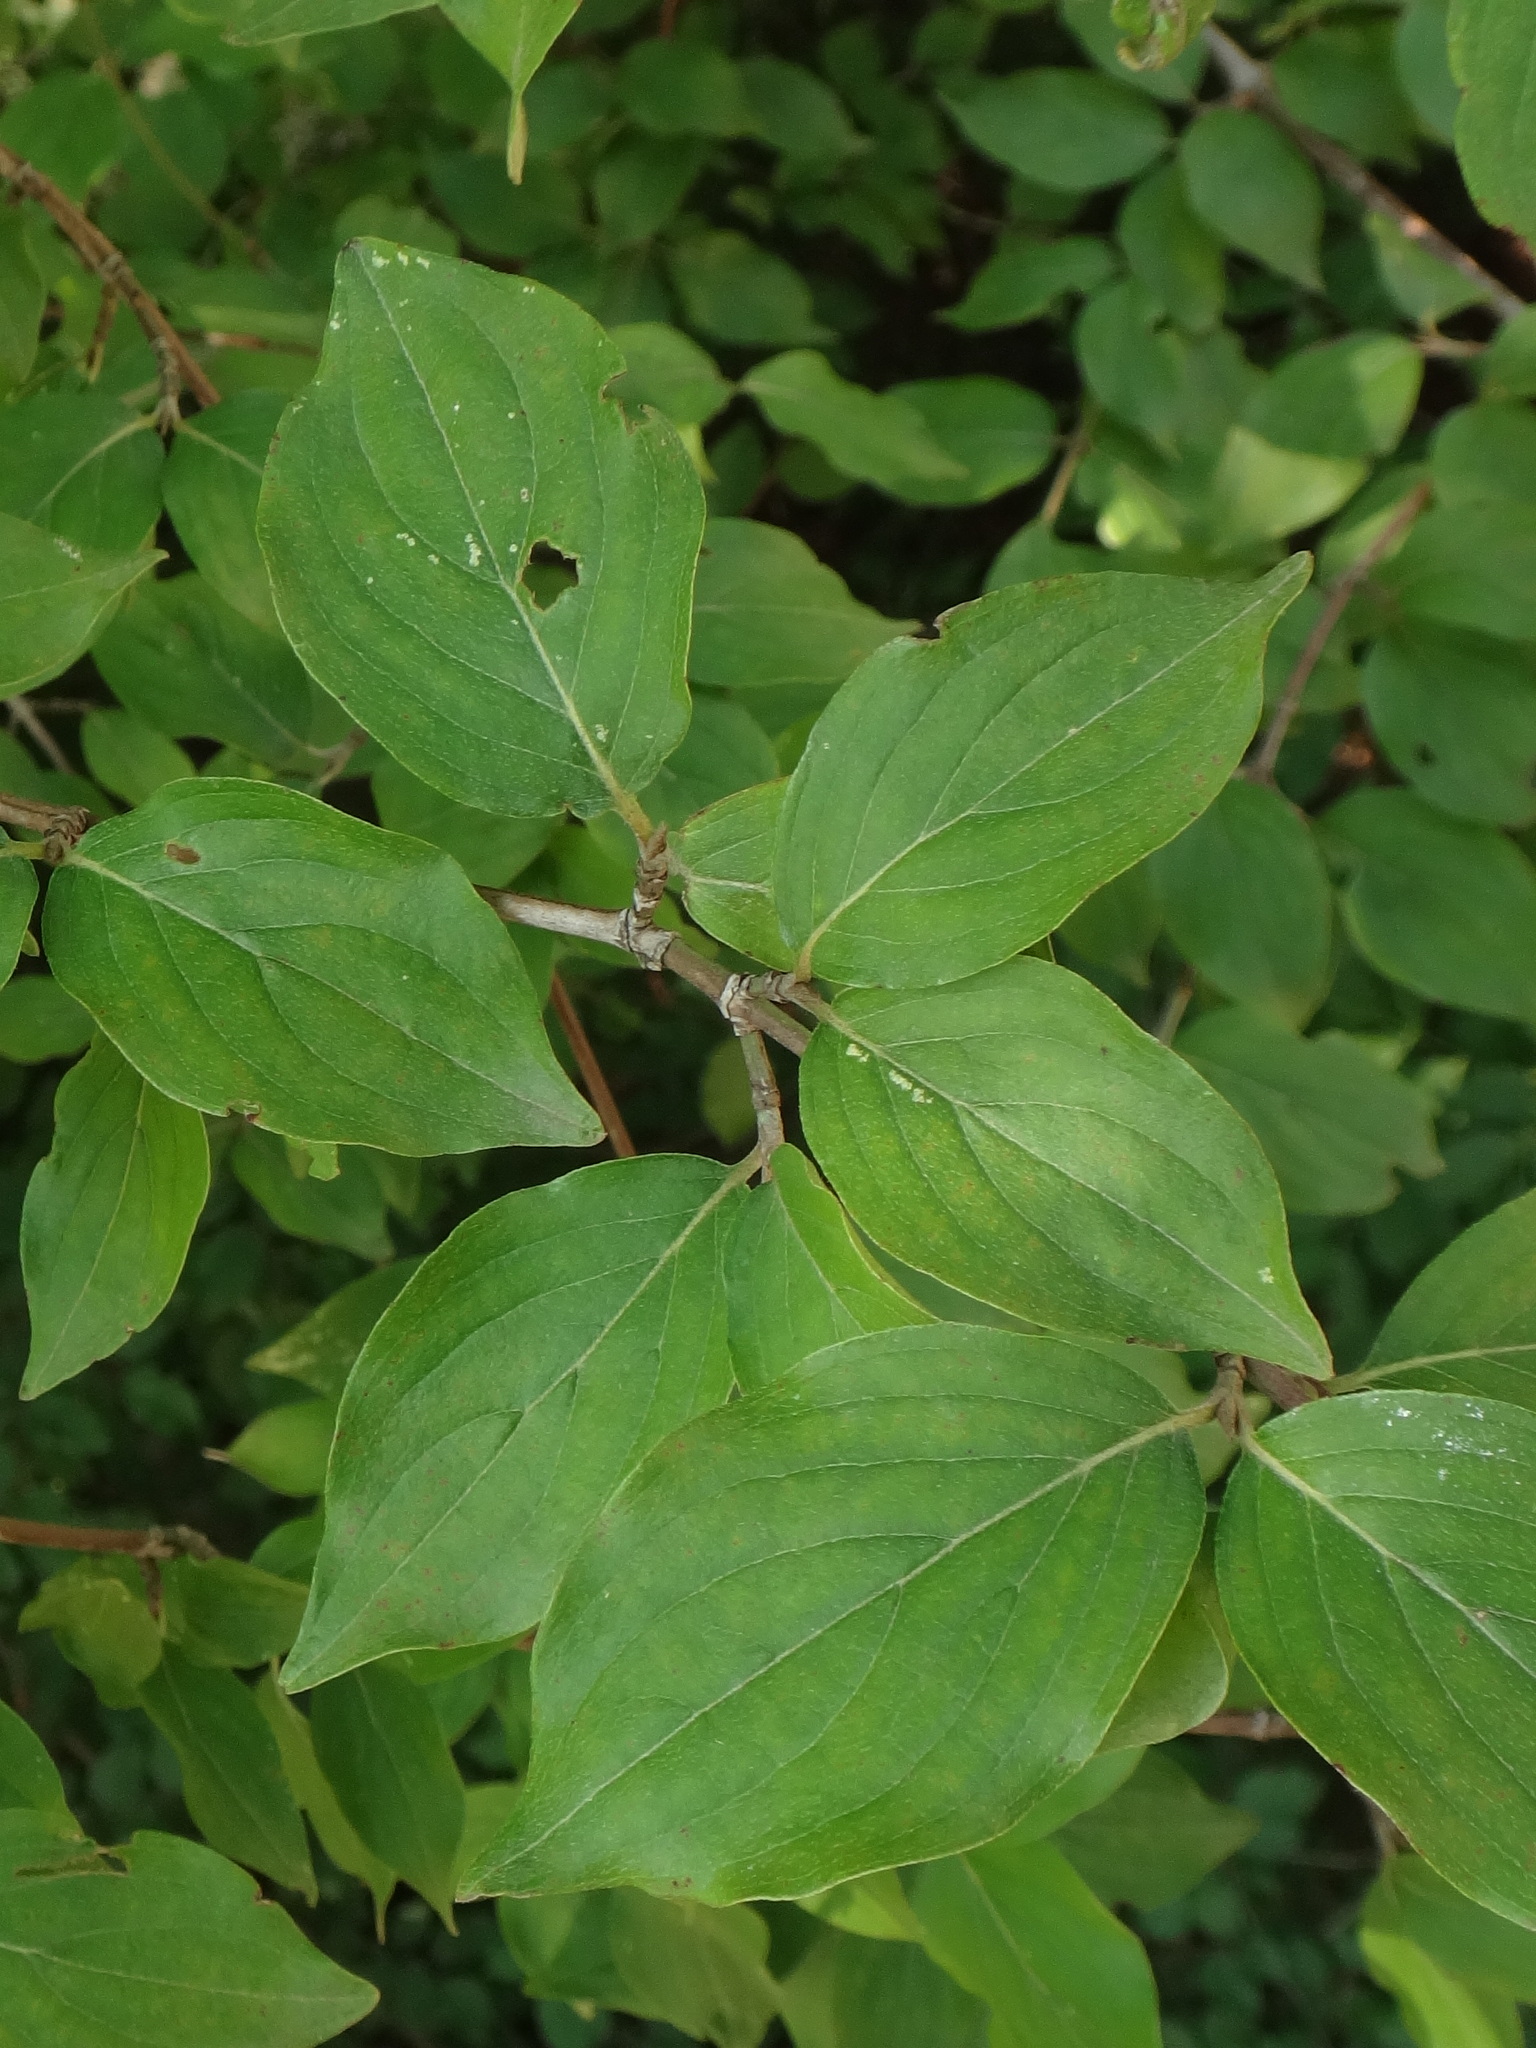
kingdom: Plantae
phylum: Tracheophyta
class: Magnoliopsida
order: Cornales
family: Cornaceae
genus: Cornus
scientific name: Cornus mas
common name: Cornelian-cherry
